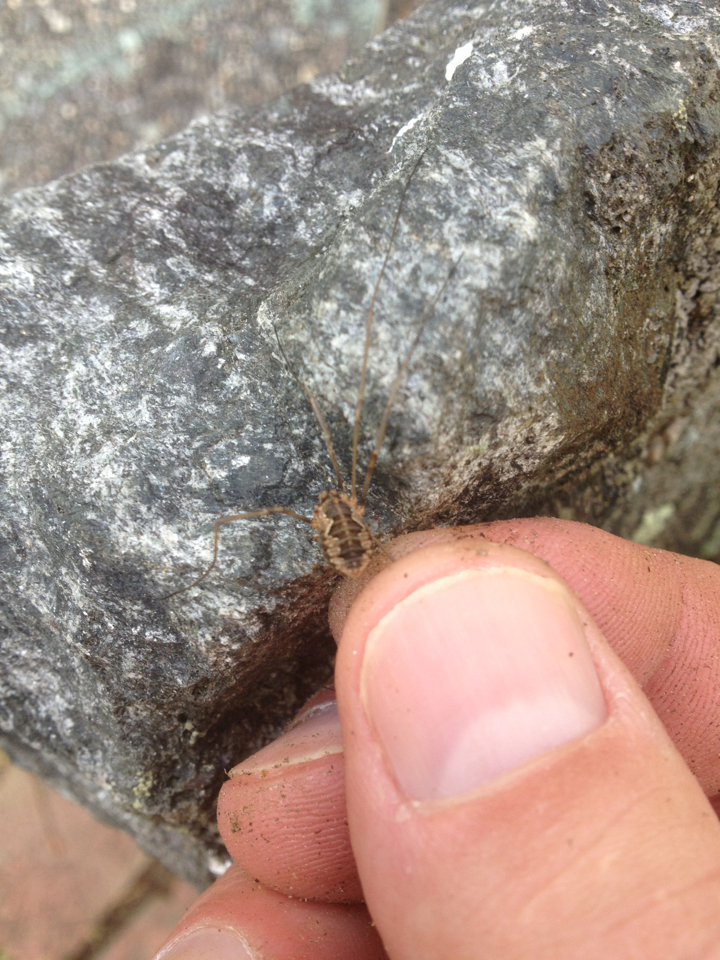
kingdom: Animalia
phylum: Arthropoda
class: Arachnida
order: Opiliones
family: Phalangiidae
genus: Phalangium
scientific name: Phalangium opilio
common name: Daddy longleg
